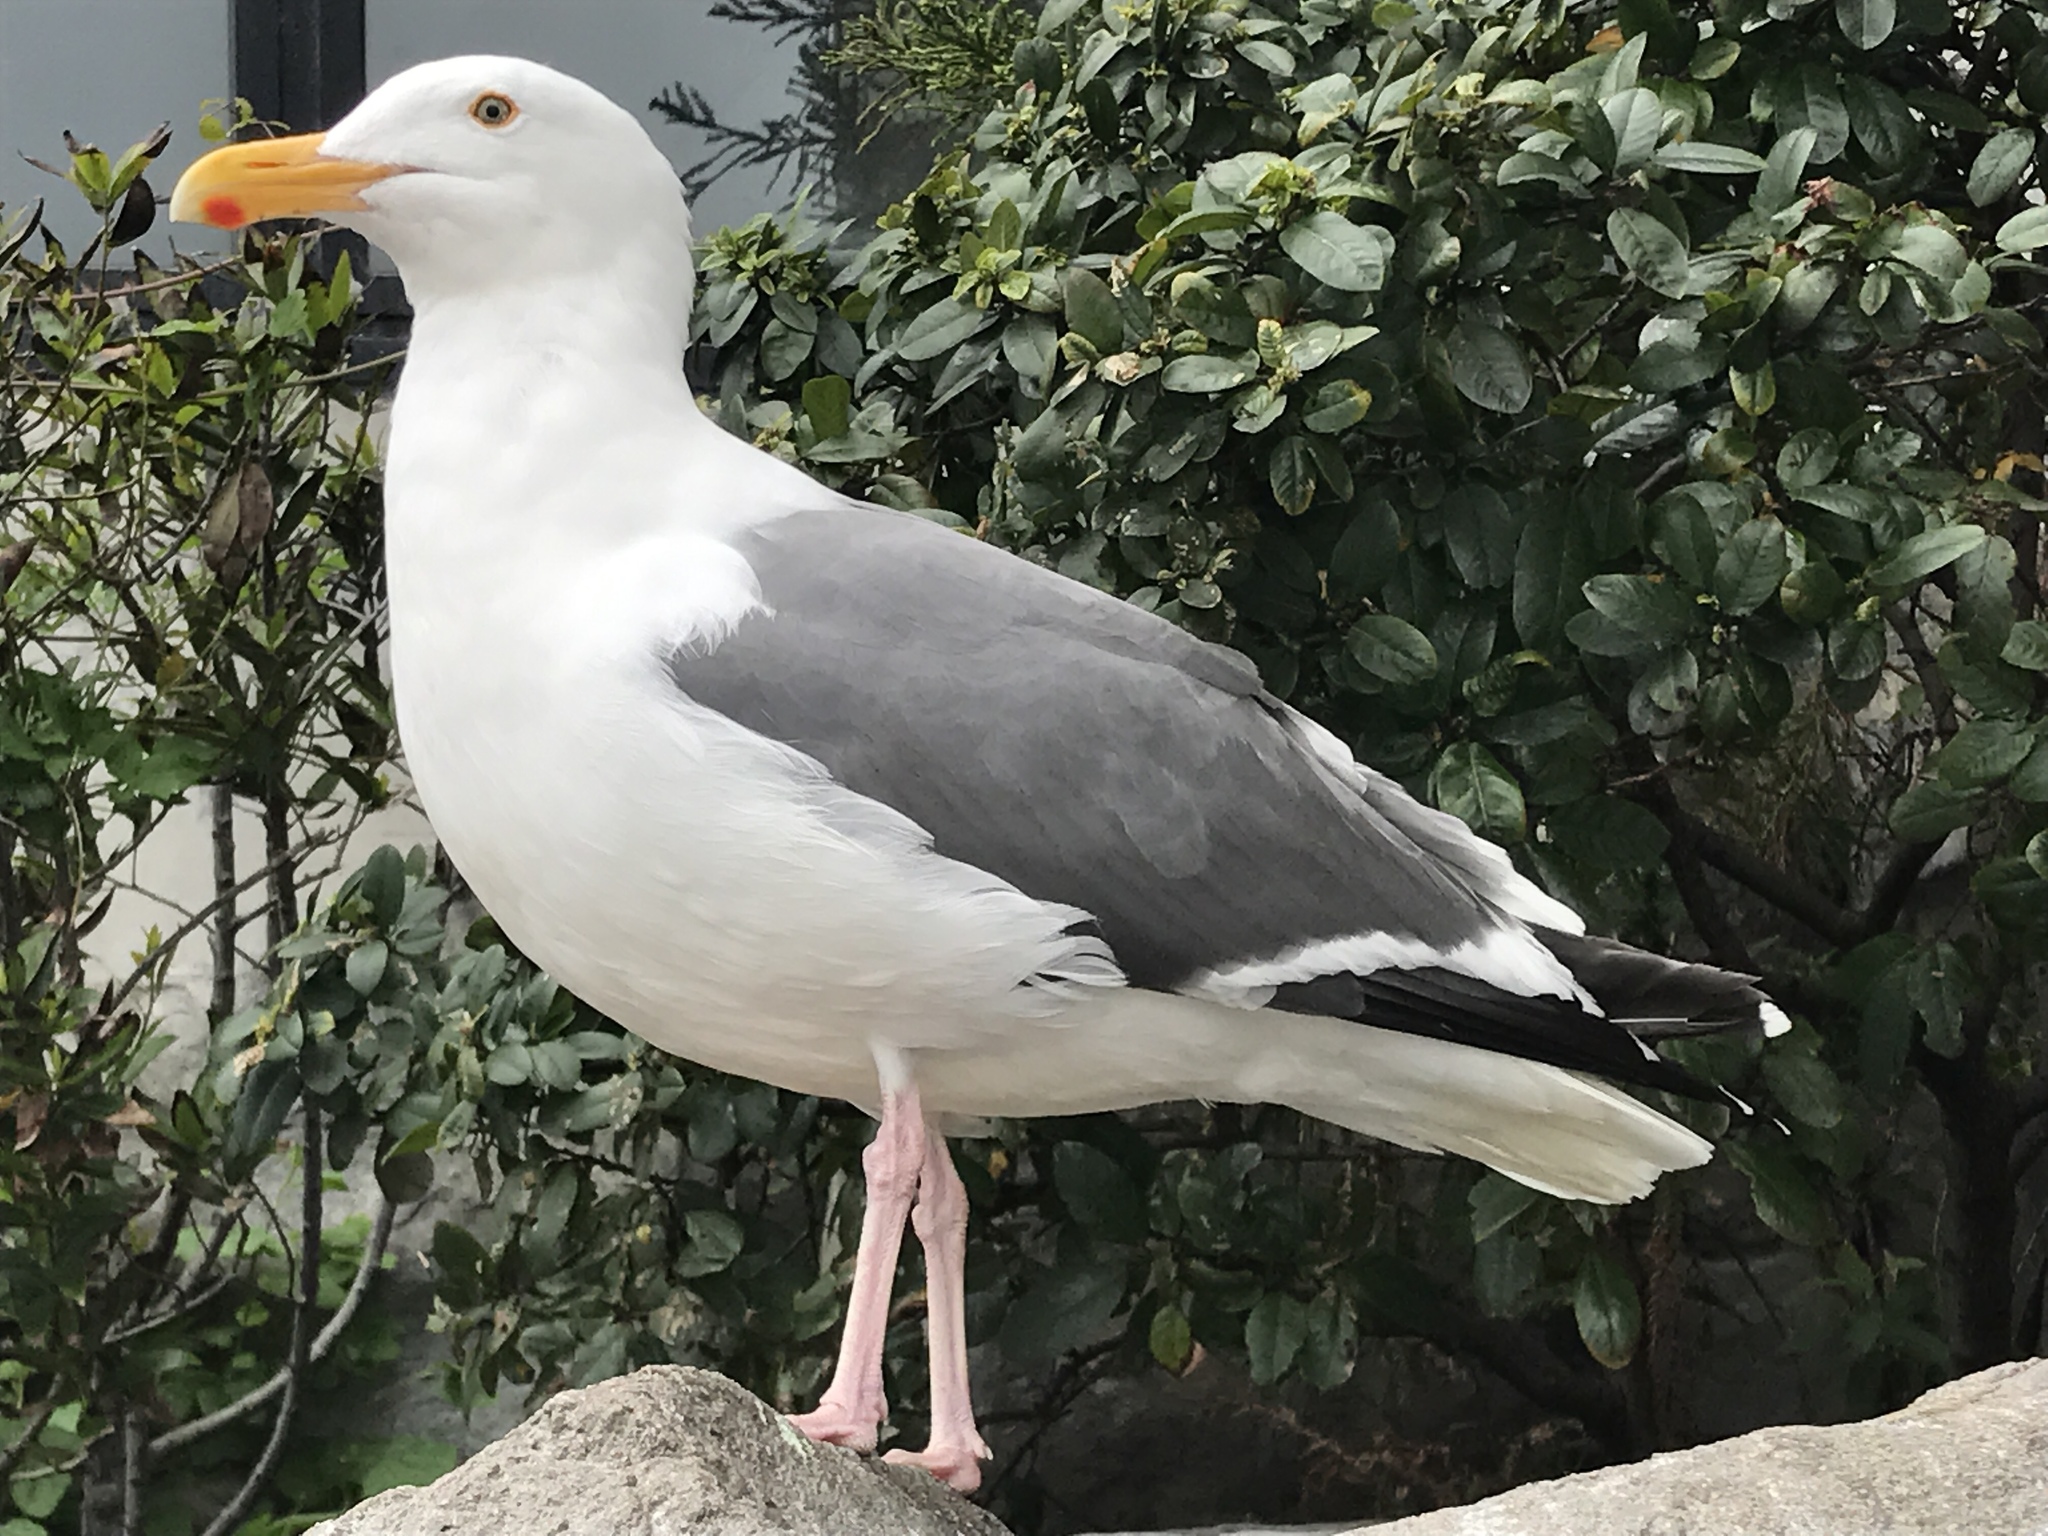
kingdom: Animalia
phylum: Chordata
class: Aves
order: Charadriiformes
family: Laridae
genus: Larus
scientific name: Larus occidentalis
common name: Western gull
